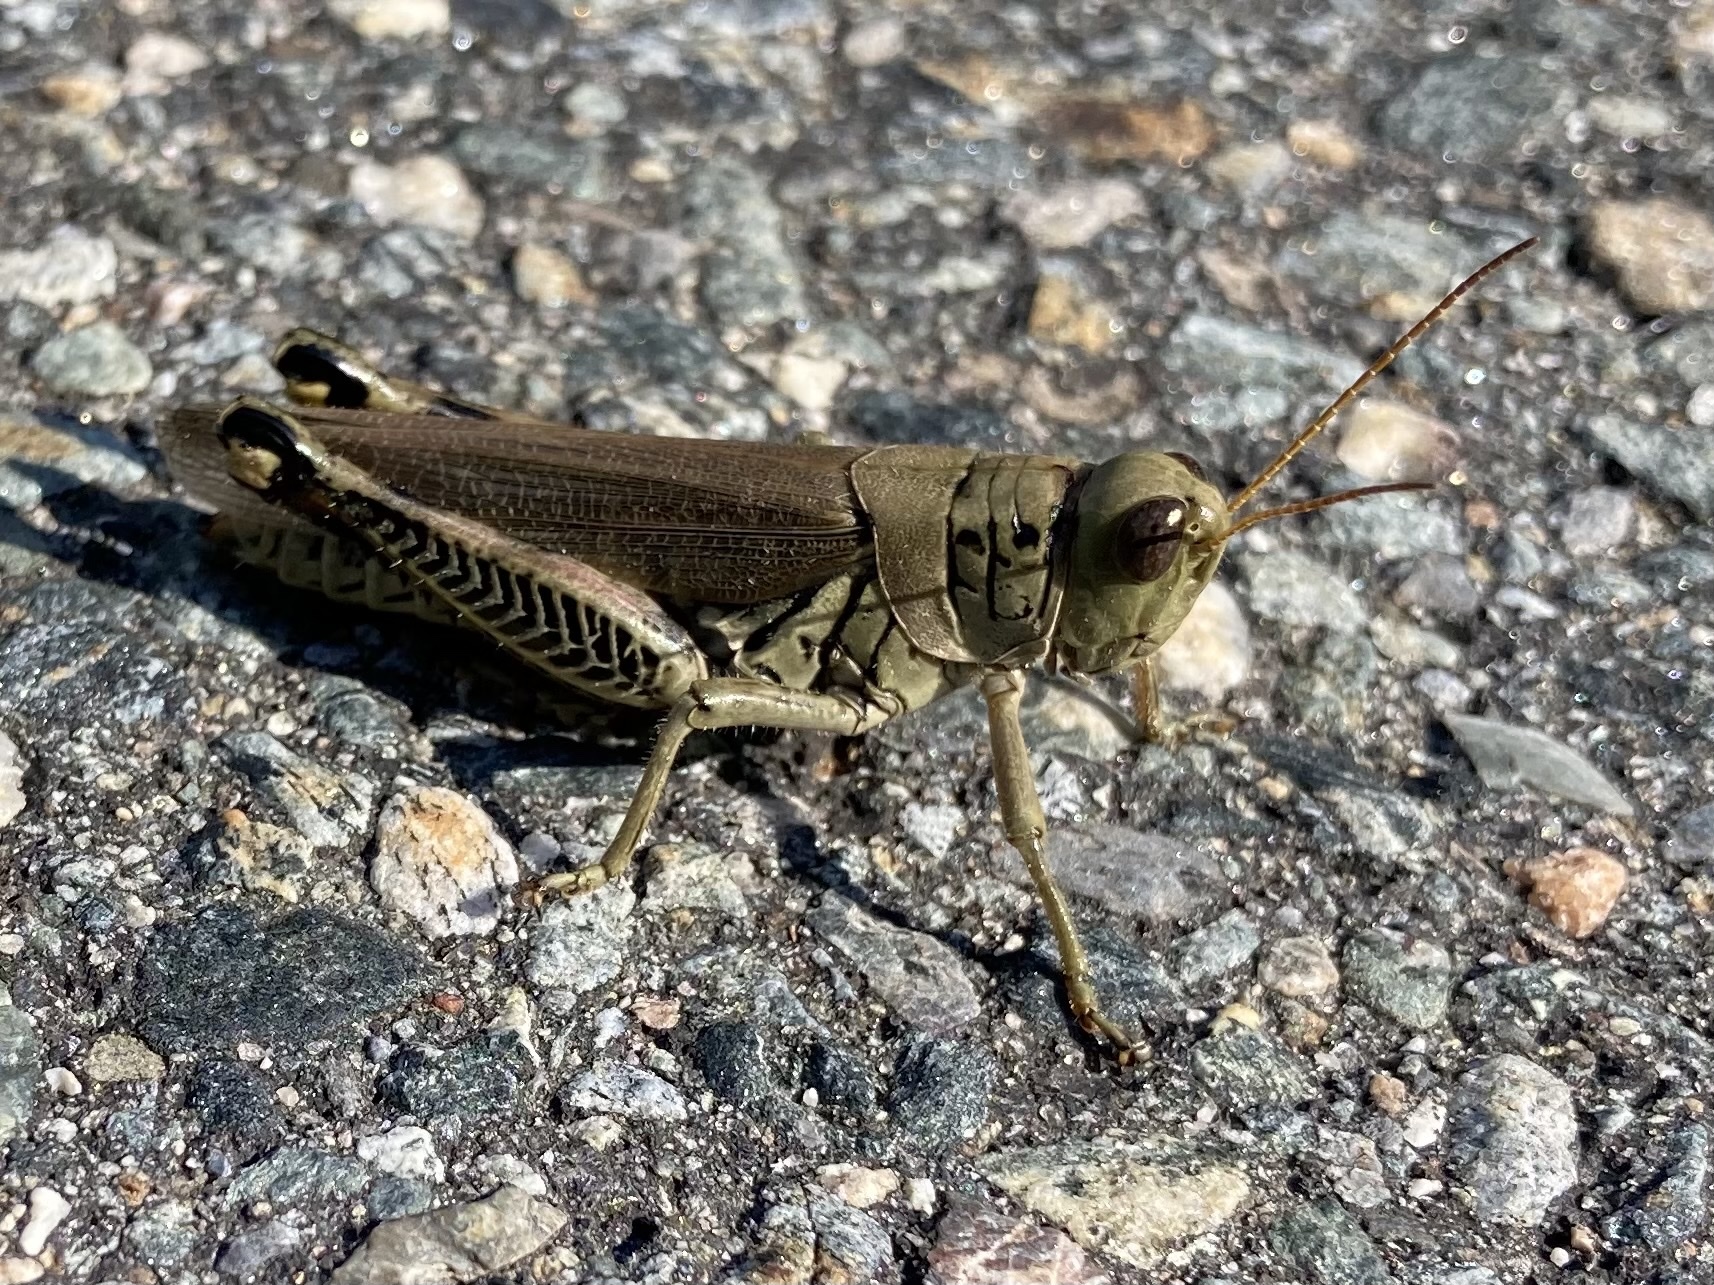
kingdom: Animalia
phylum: Arthropoda
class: Insecta
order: Orthoptera
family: Acrididae
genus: Melanoplus
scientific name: Melanoplus differentialis
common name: Differential grasshopper
